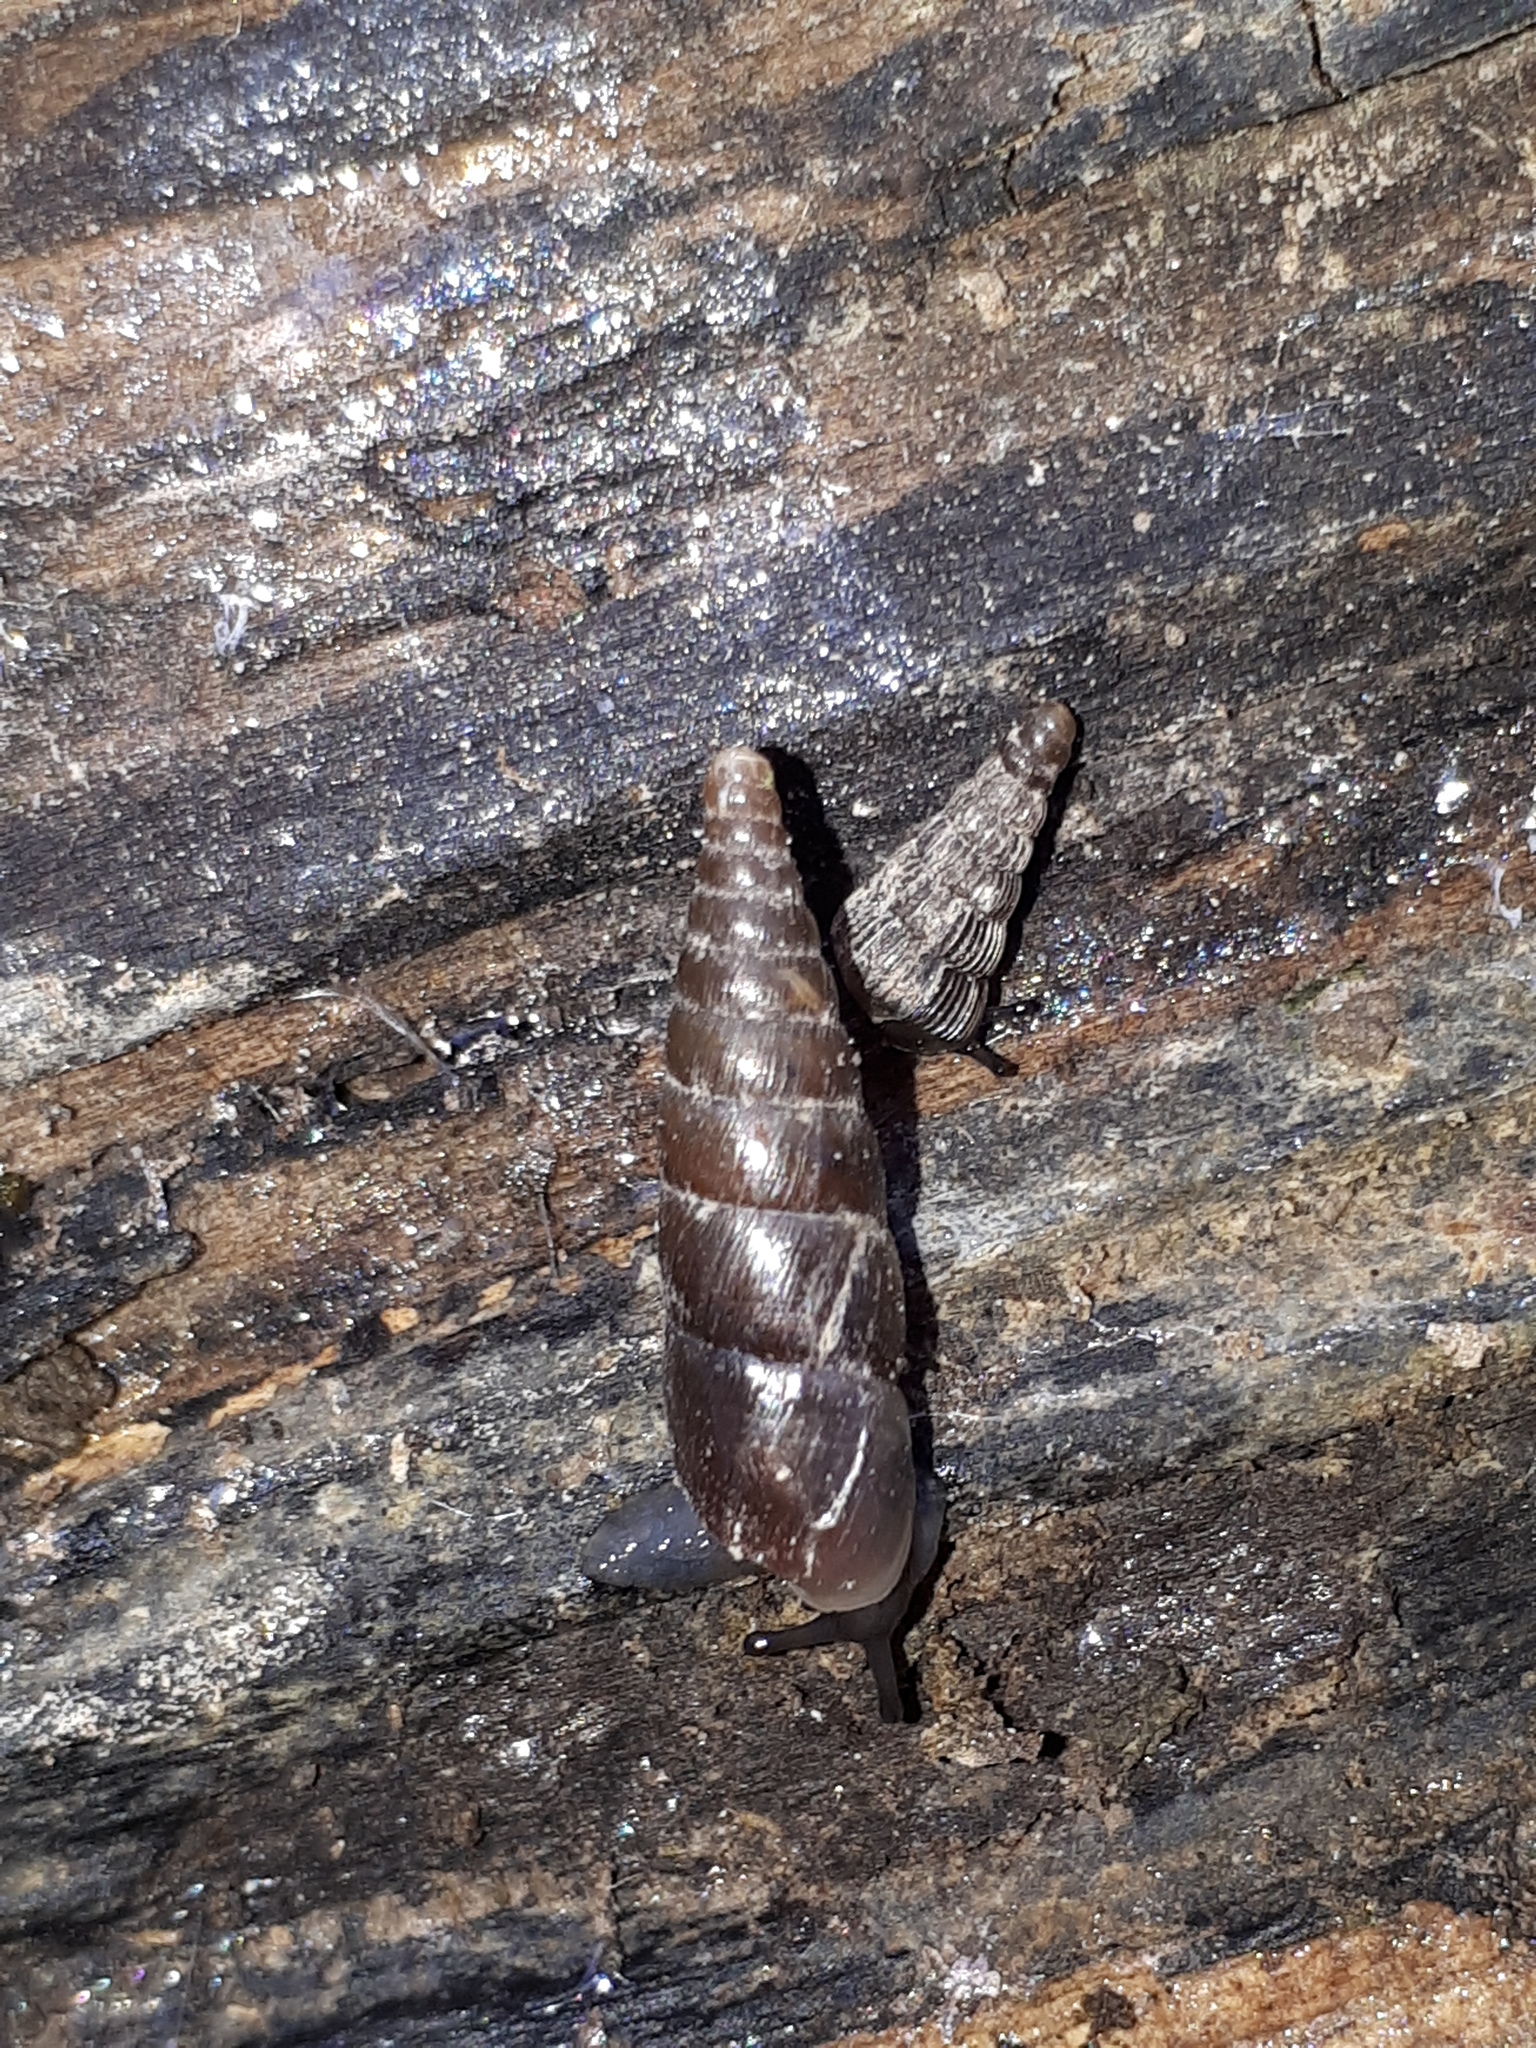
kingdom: Animalia
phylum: Mollusca
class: Gastropoda
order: Stylommatophora
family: Clausiliidae
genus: Cochlodina
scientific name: Cochlodina laminata
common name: Plaited door snail
